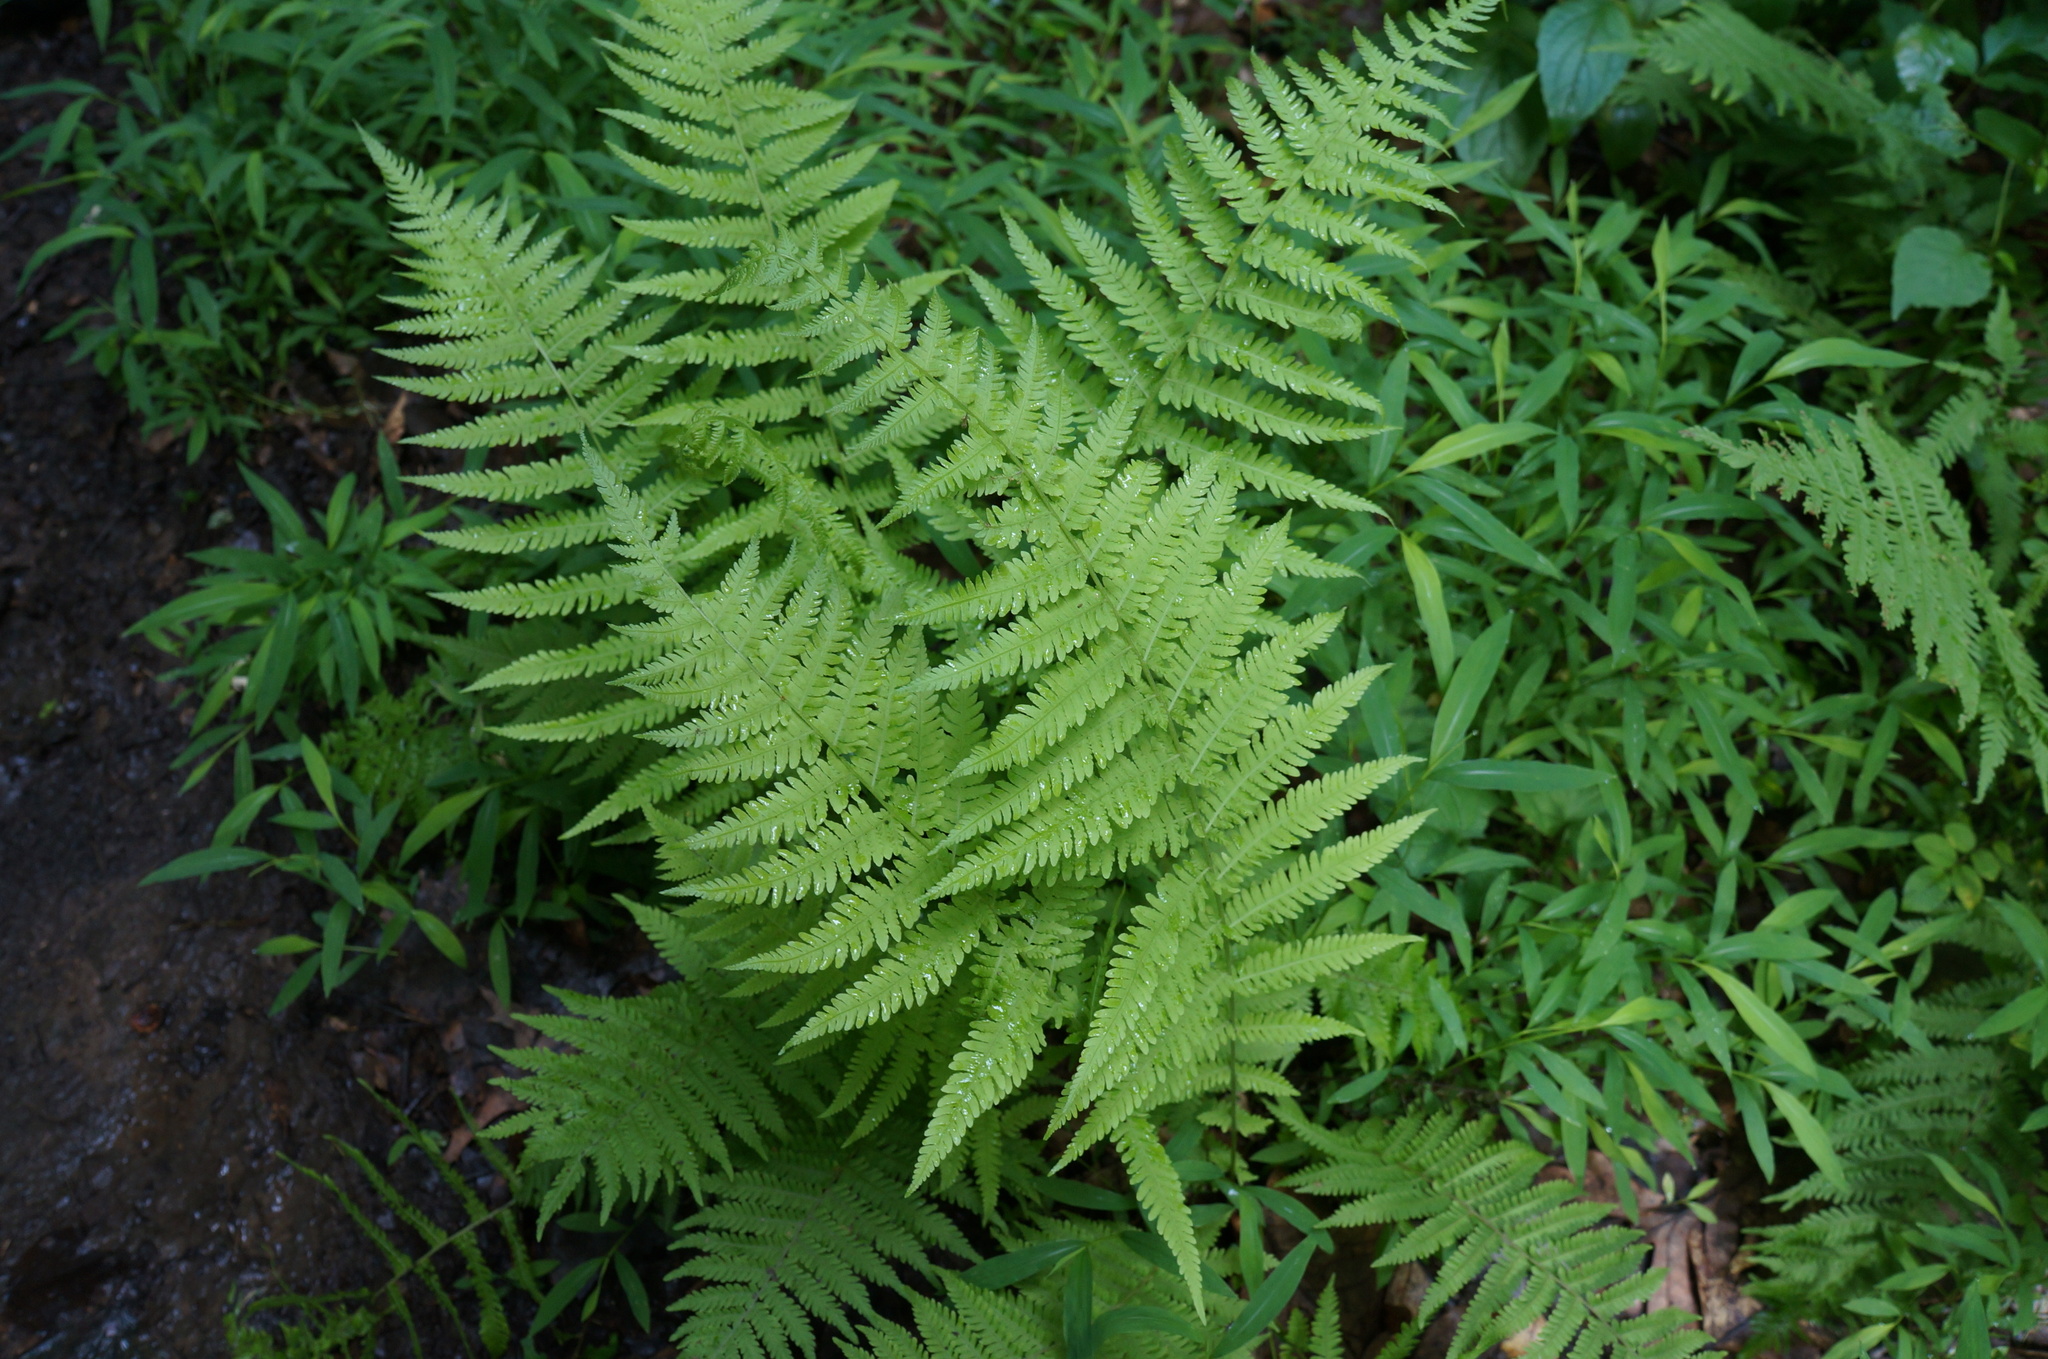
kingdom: Plantae
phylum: Tracheophyta
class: Polypodiopsida
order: Polypodiales
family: Thelypteridaceae
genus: Amauropelta
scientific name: Amauropelta noveboracensis
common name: New york fern
